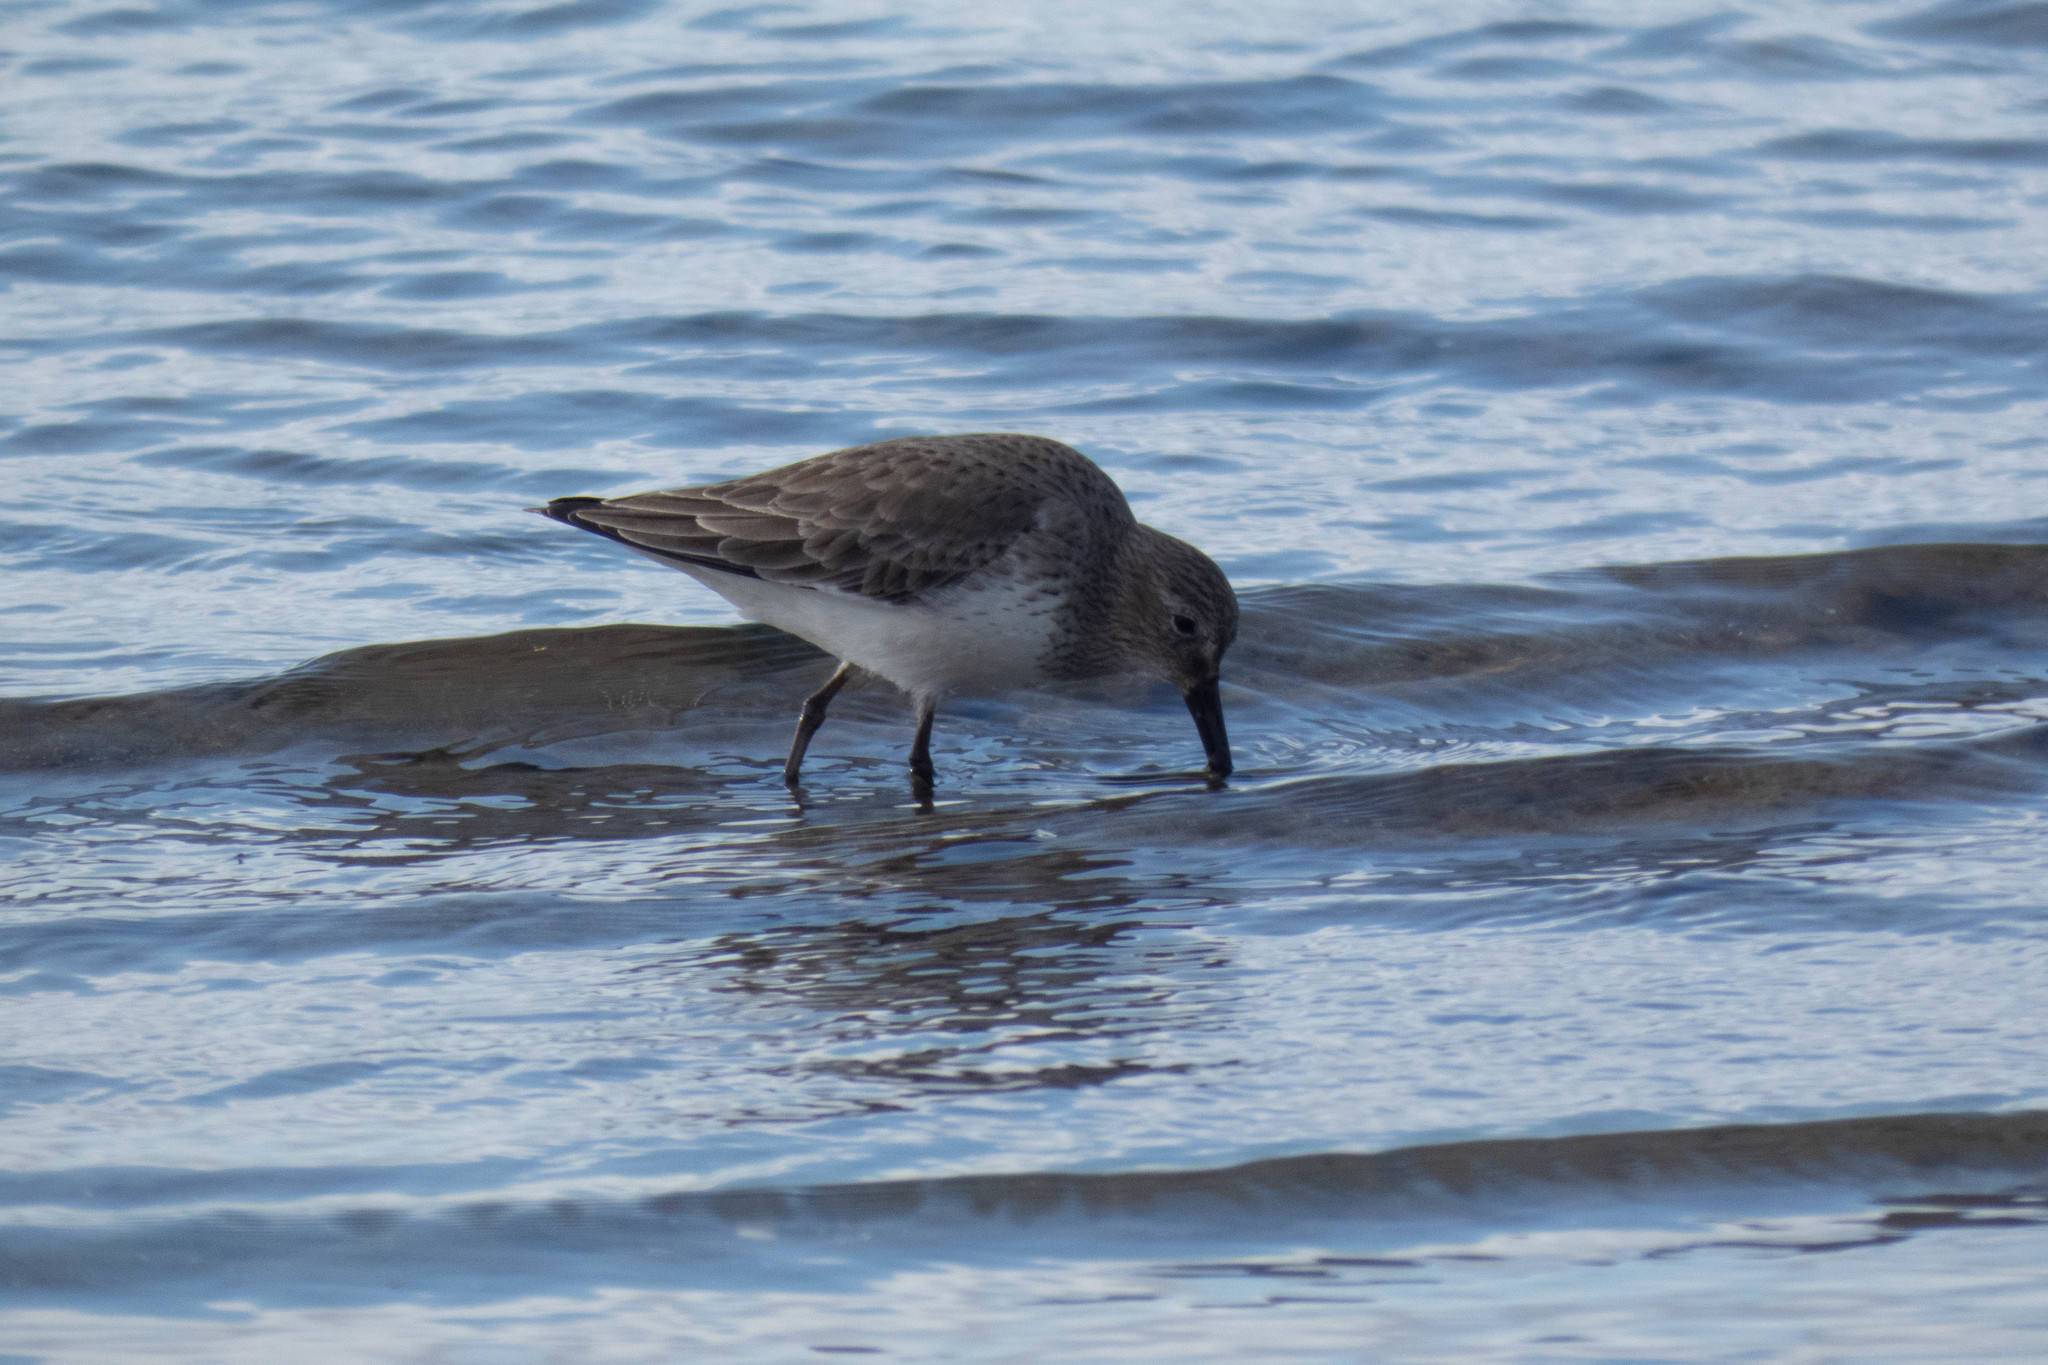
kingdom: Animalia
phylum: Chordata
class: Aves
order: Charadriiformes
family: Scolopacidae
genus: Calidris
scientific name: Calidris alpina
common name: Dunlin
